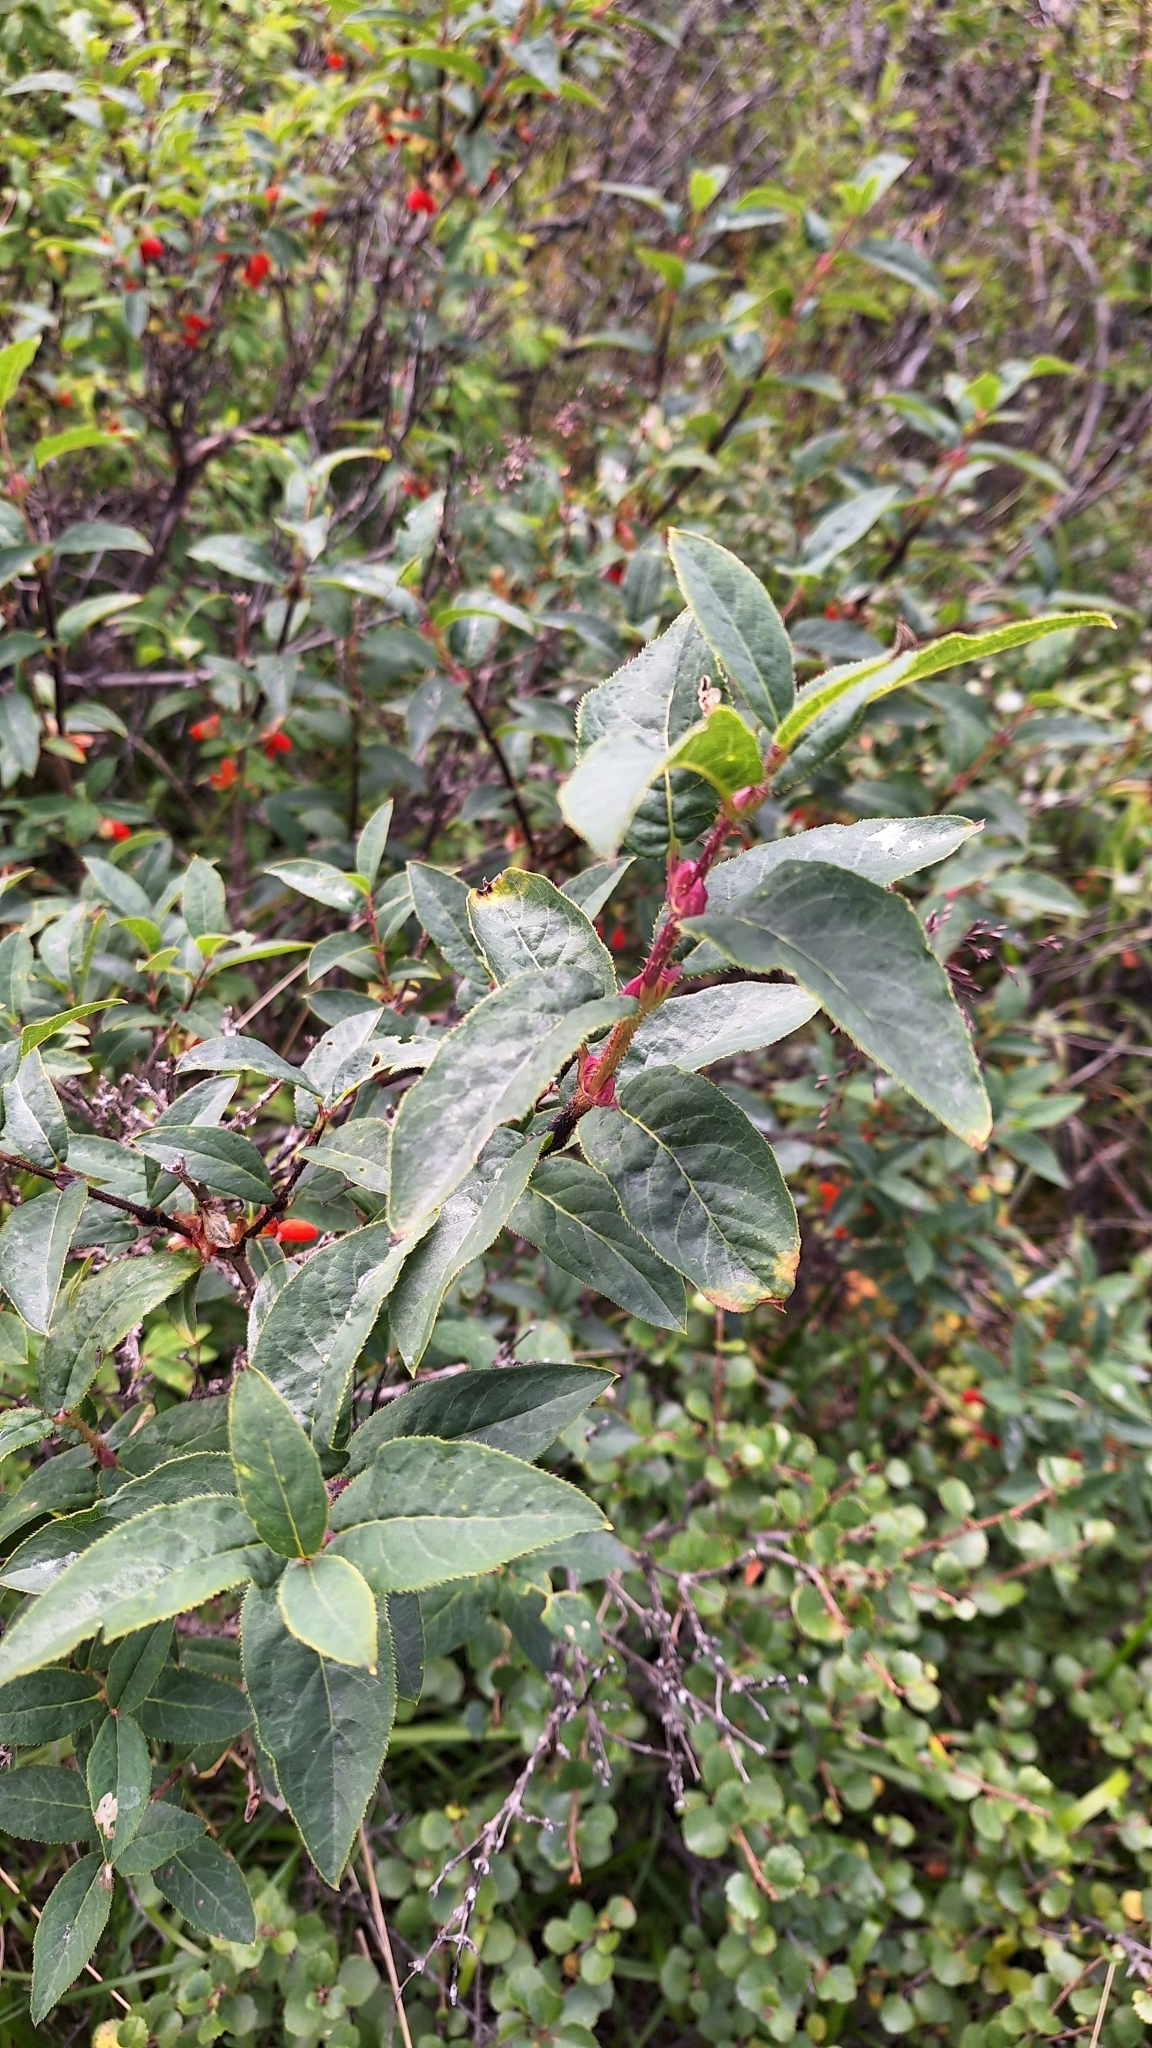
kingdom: Plantae
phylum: Tracheophyta
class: Magnoliopsida
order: Dipsacales
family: Caprifoliaceae
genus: Lonicera
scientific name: Lonicera hispida
